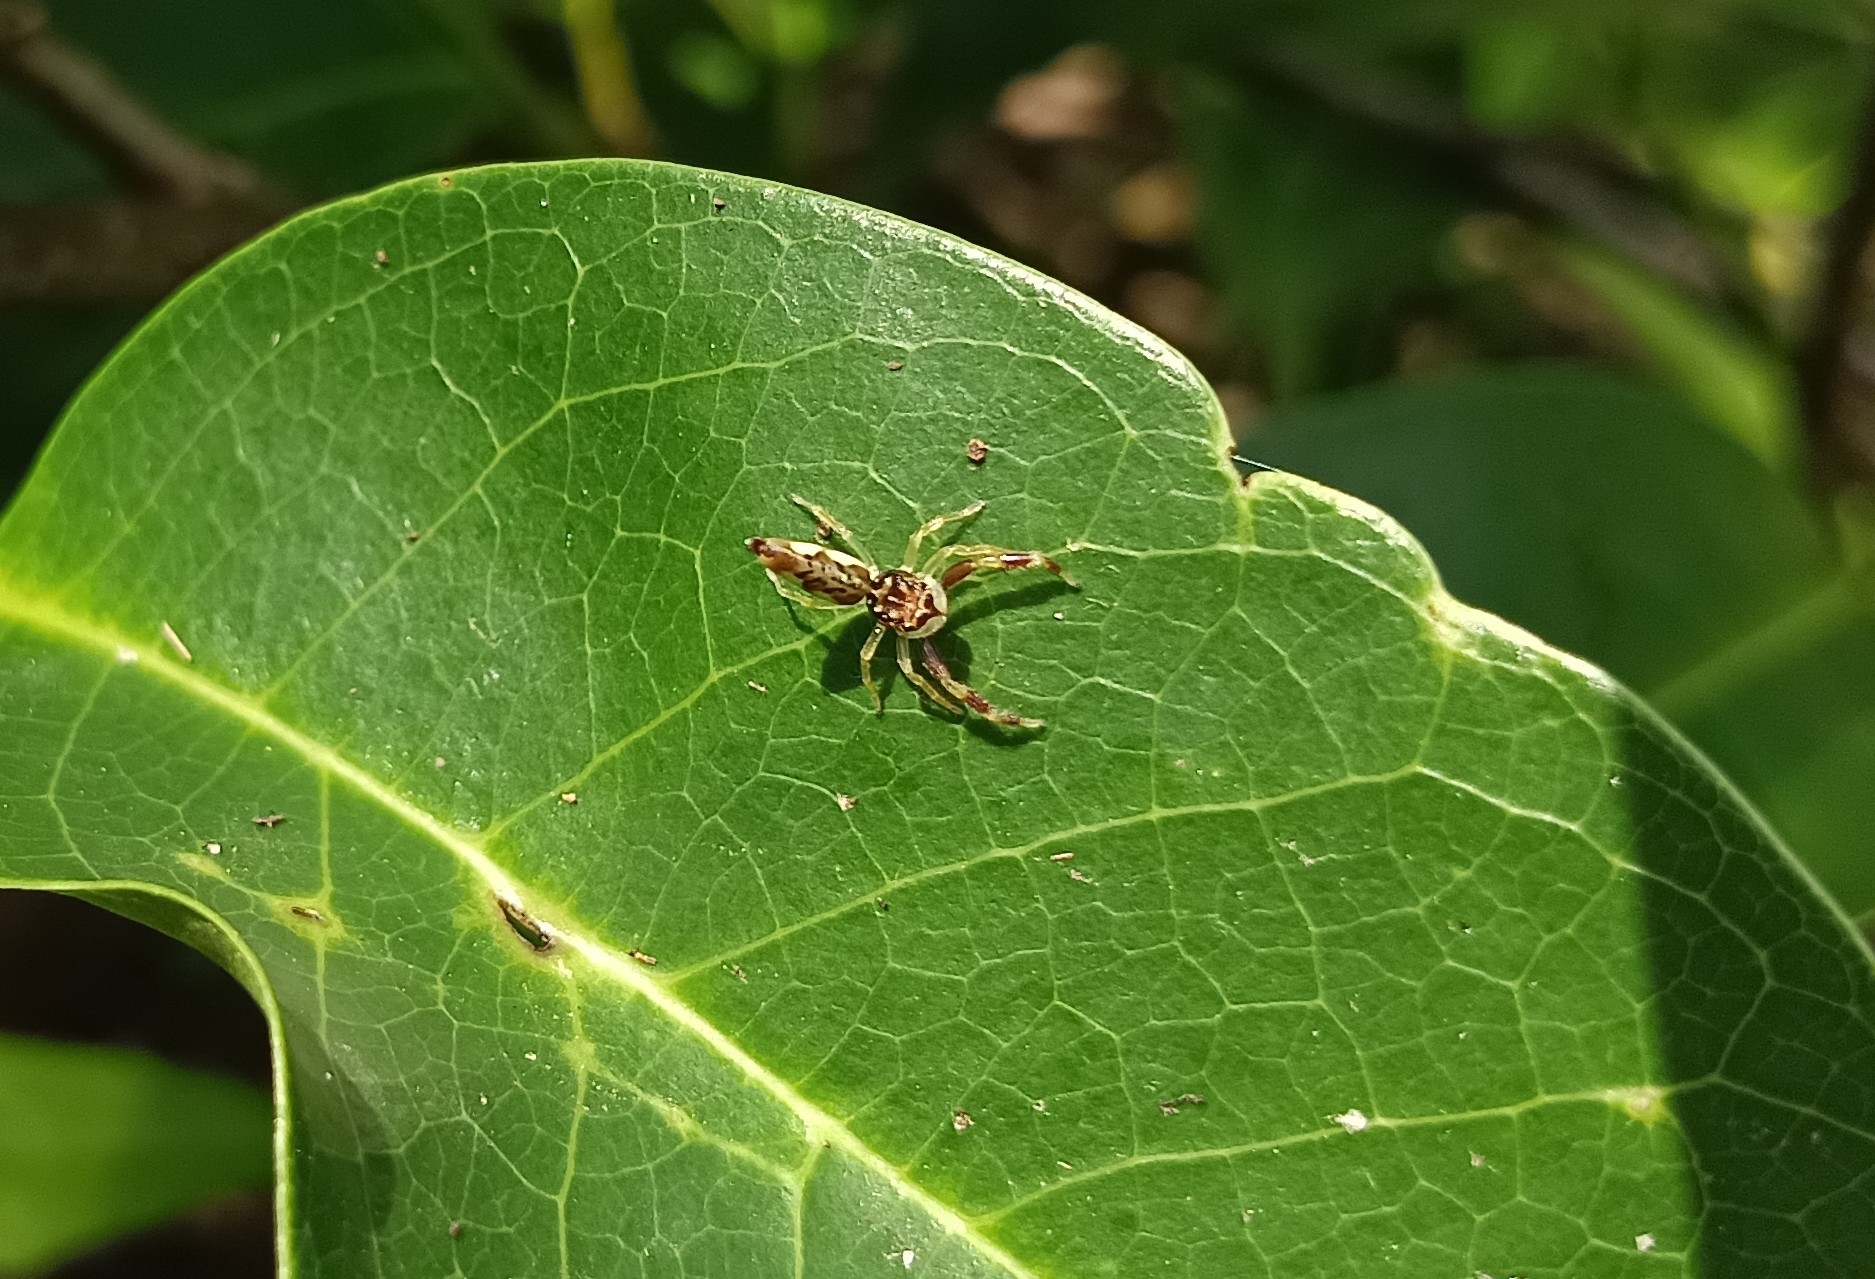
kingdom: Animalia
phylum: Arthropoda
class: Arachnida
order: Araneae
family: Salticidae
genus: Indopadilla
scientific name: Indopadilla insularis
